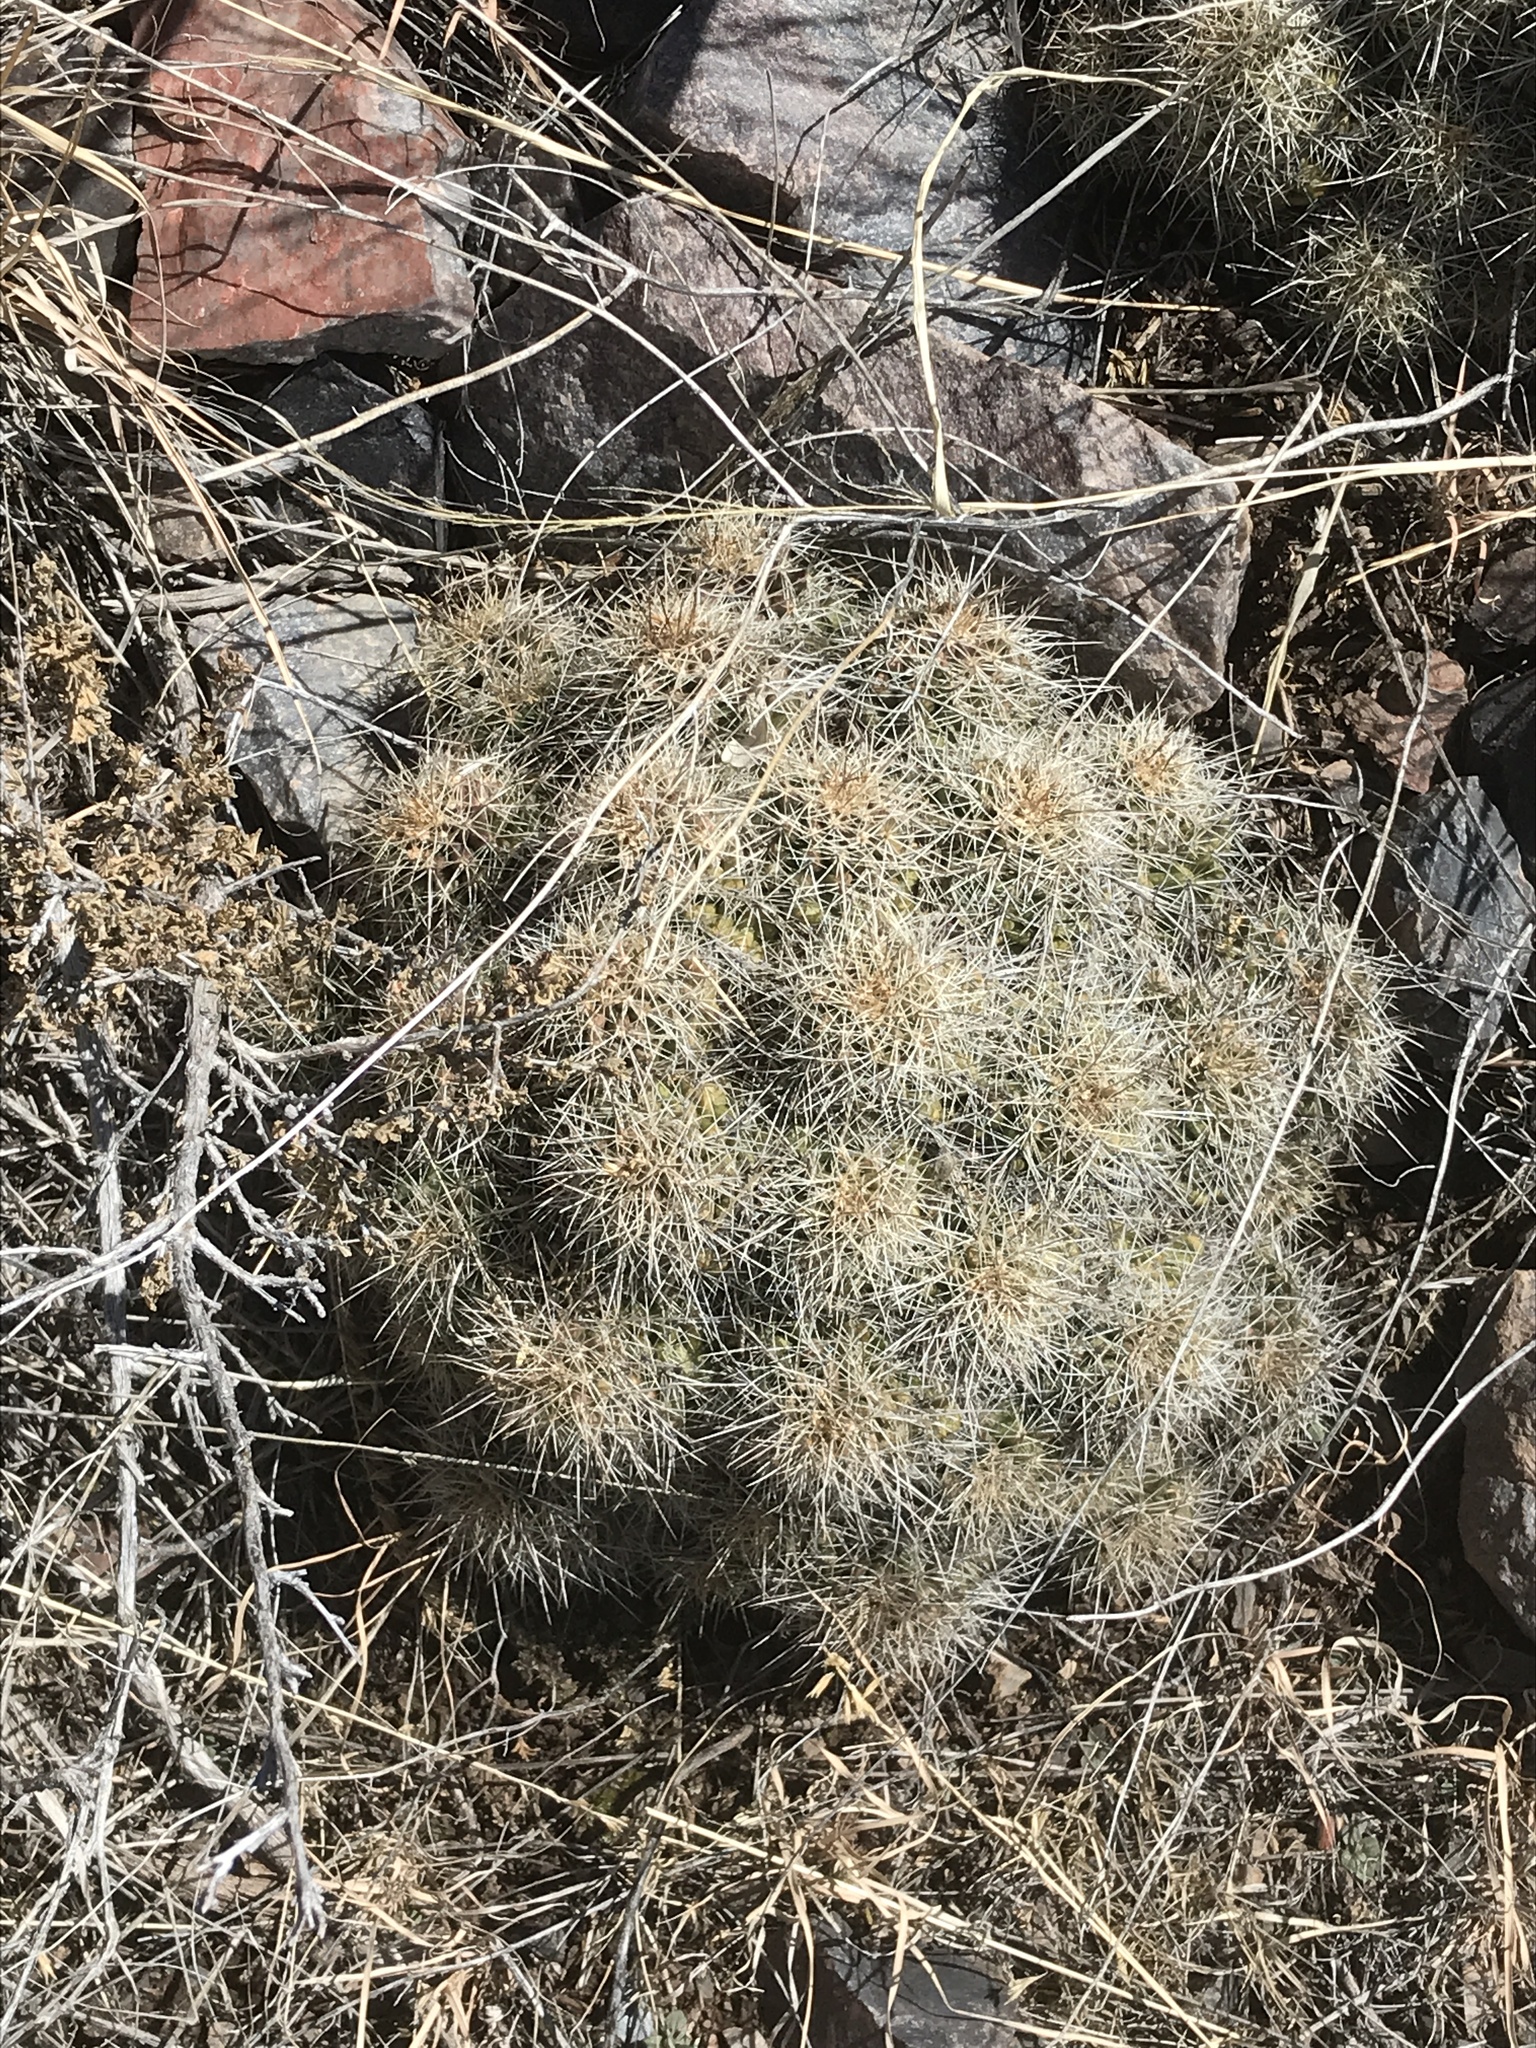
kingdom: Plantae
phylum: Tracheophyta
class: Magnoliopsida
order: Caryophyllales
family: Cactaceae
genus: Echinocereus
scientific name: Echinocereus coccineus
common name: Scarlet hedgehog cactus
